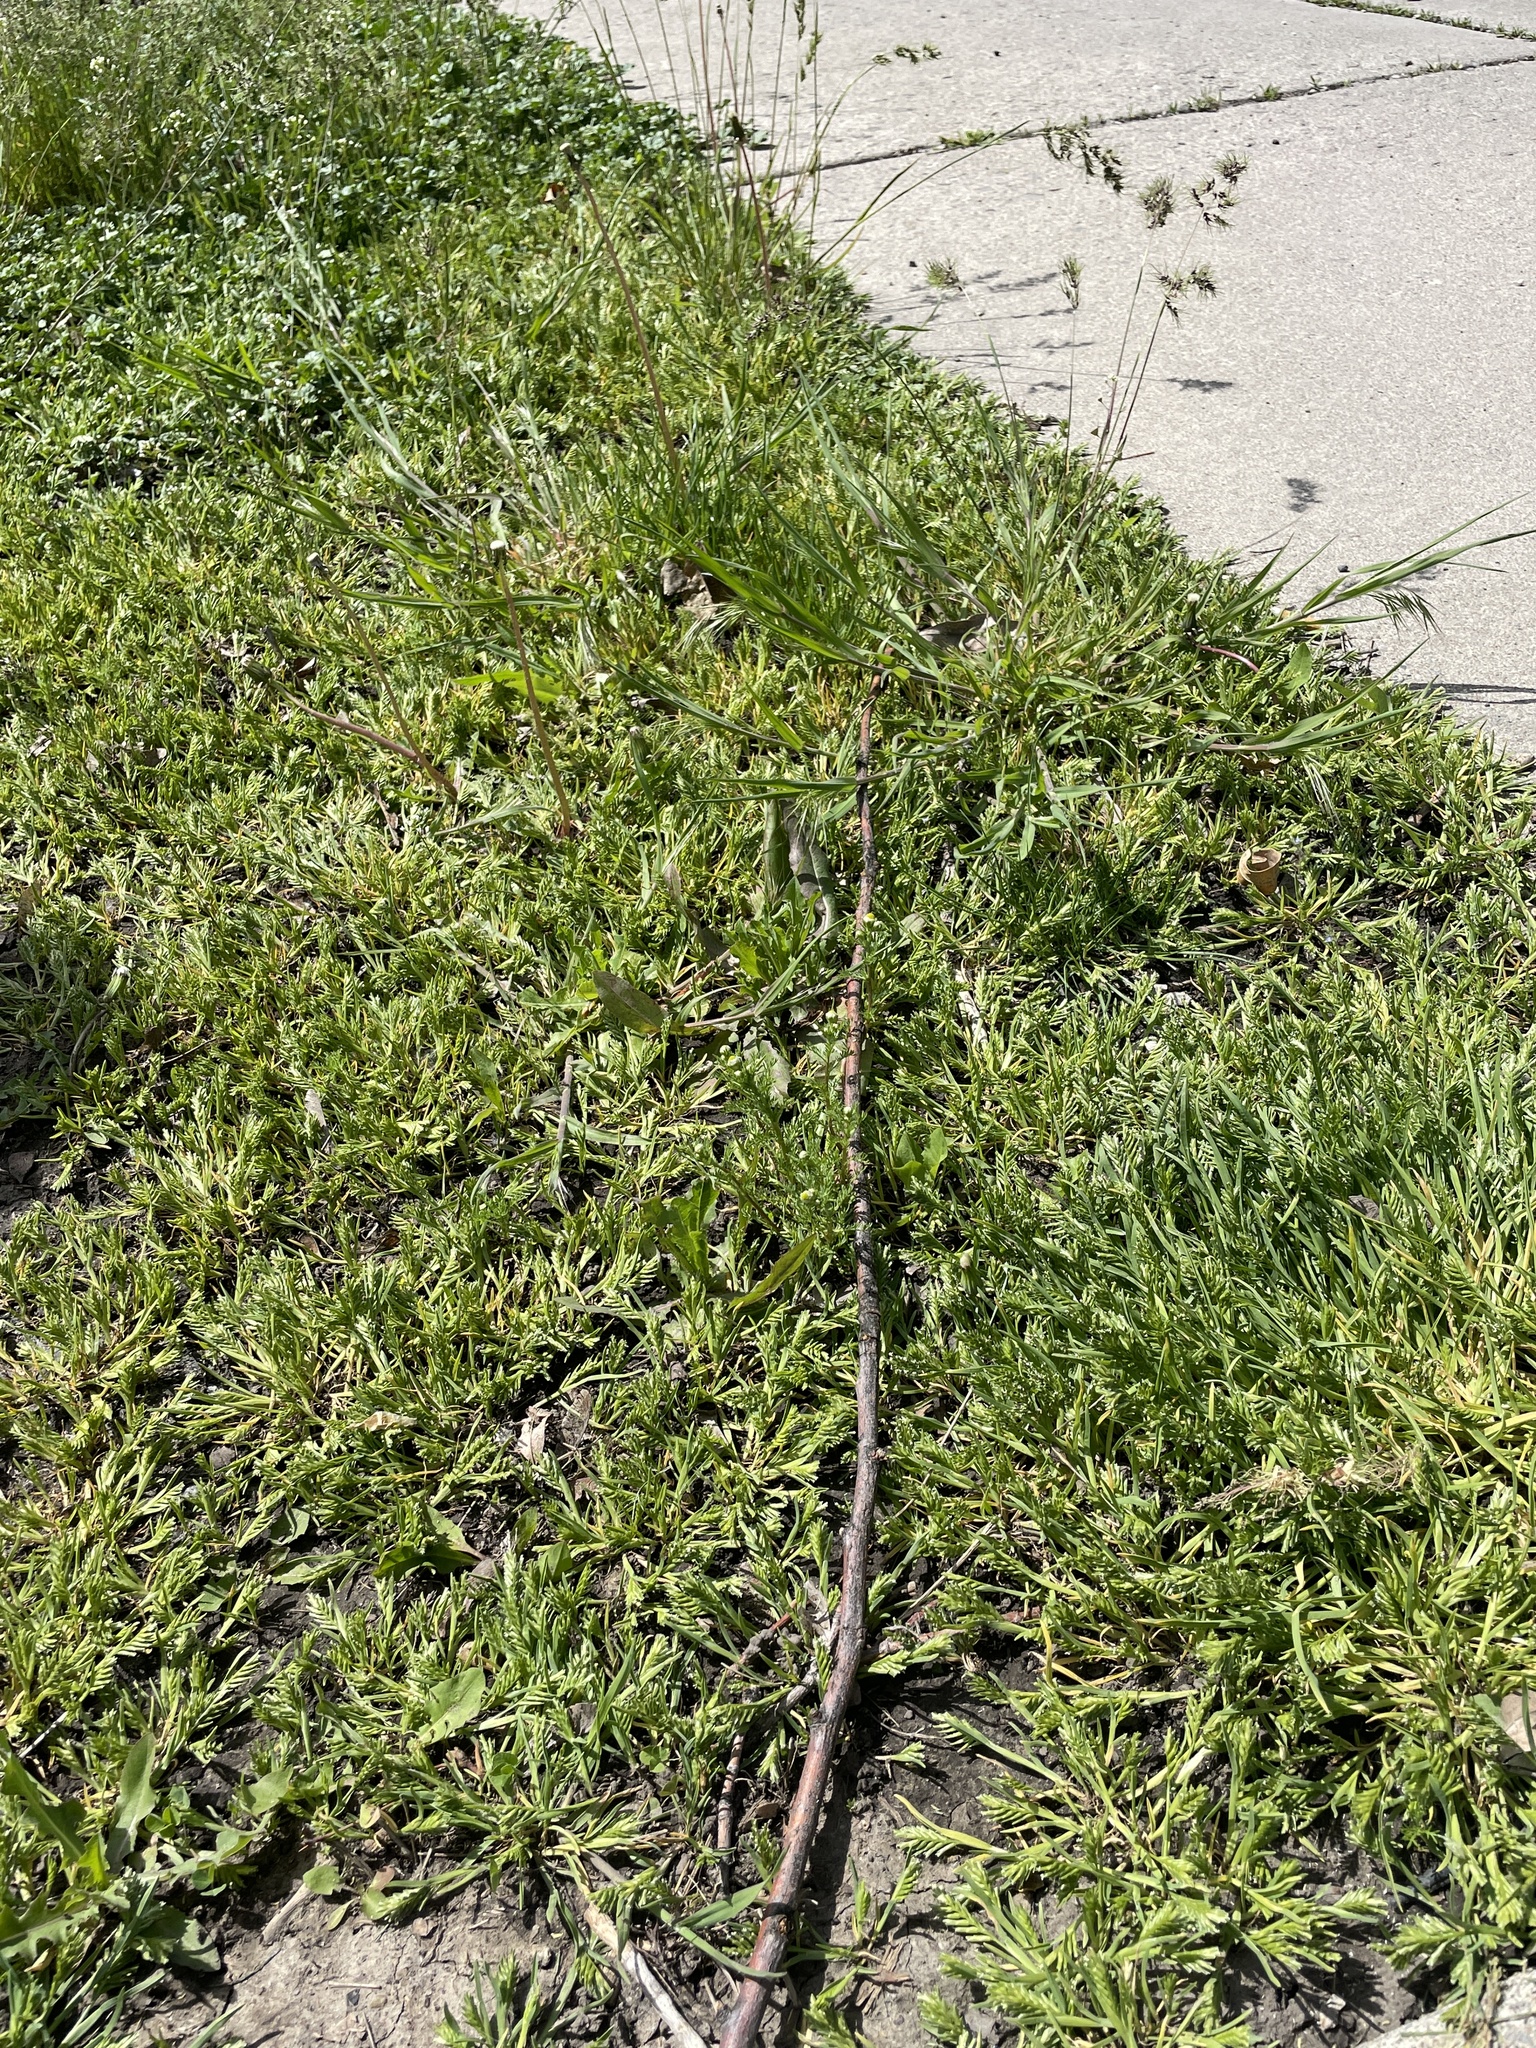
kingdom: Plantae
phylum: Tracheophyta
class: Liliopsida
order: Poales
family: Poaceae
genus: Sclerochloa
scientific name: Sclerochloa dura
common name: Common hardgrass
